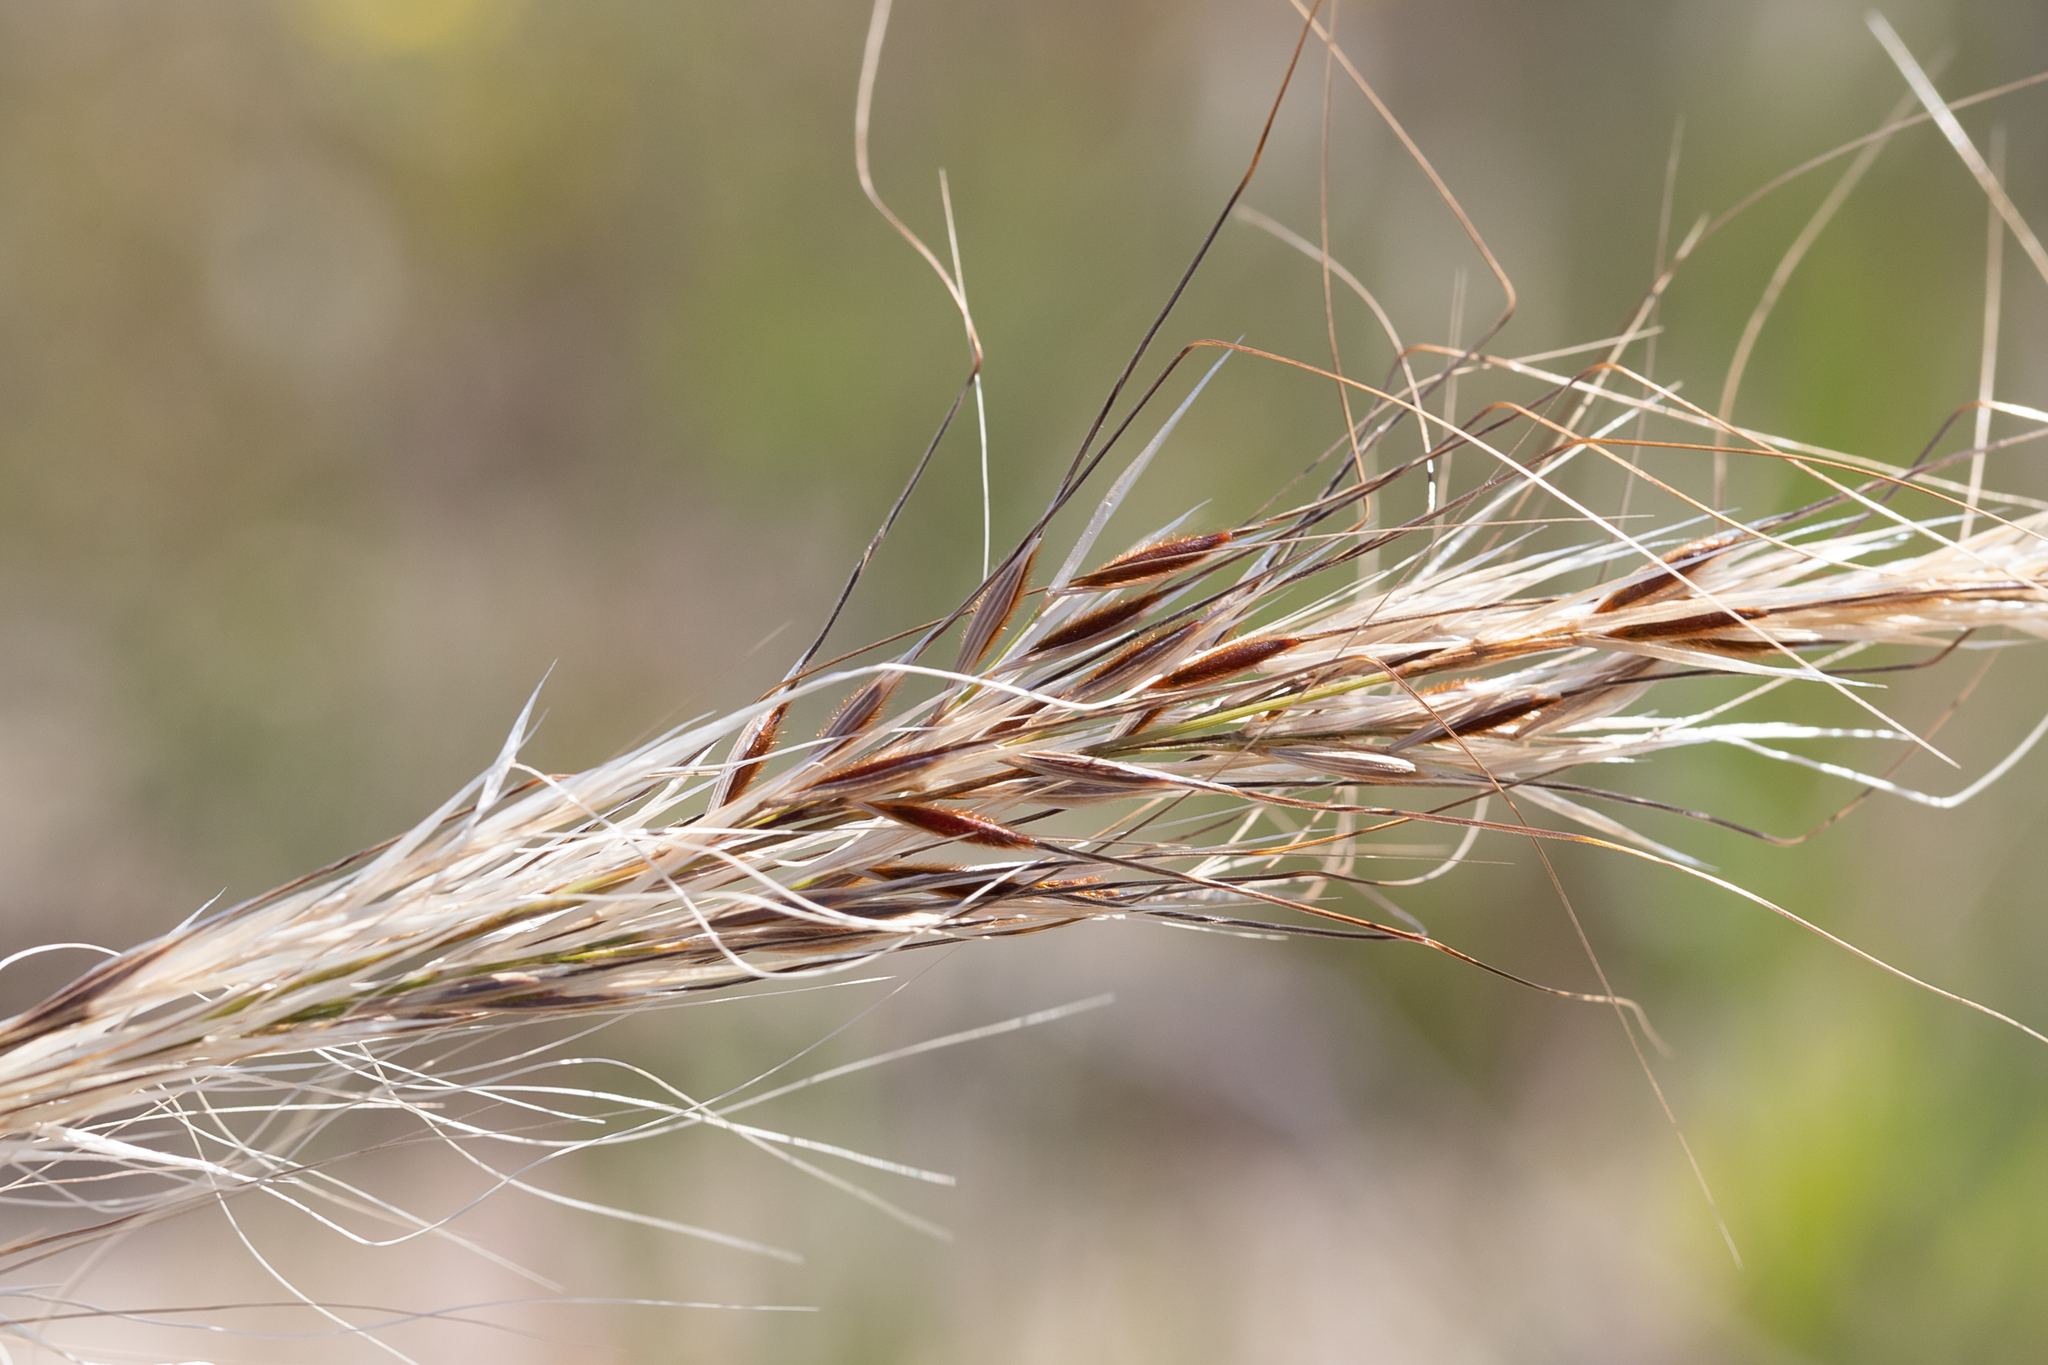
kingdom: Plantae
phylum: Tracheophyta
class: Liliopsida
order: Poales
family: Poaceae
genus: Austrostipa
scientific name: Austrostipa flavescens
